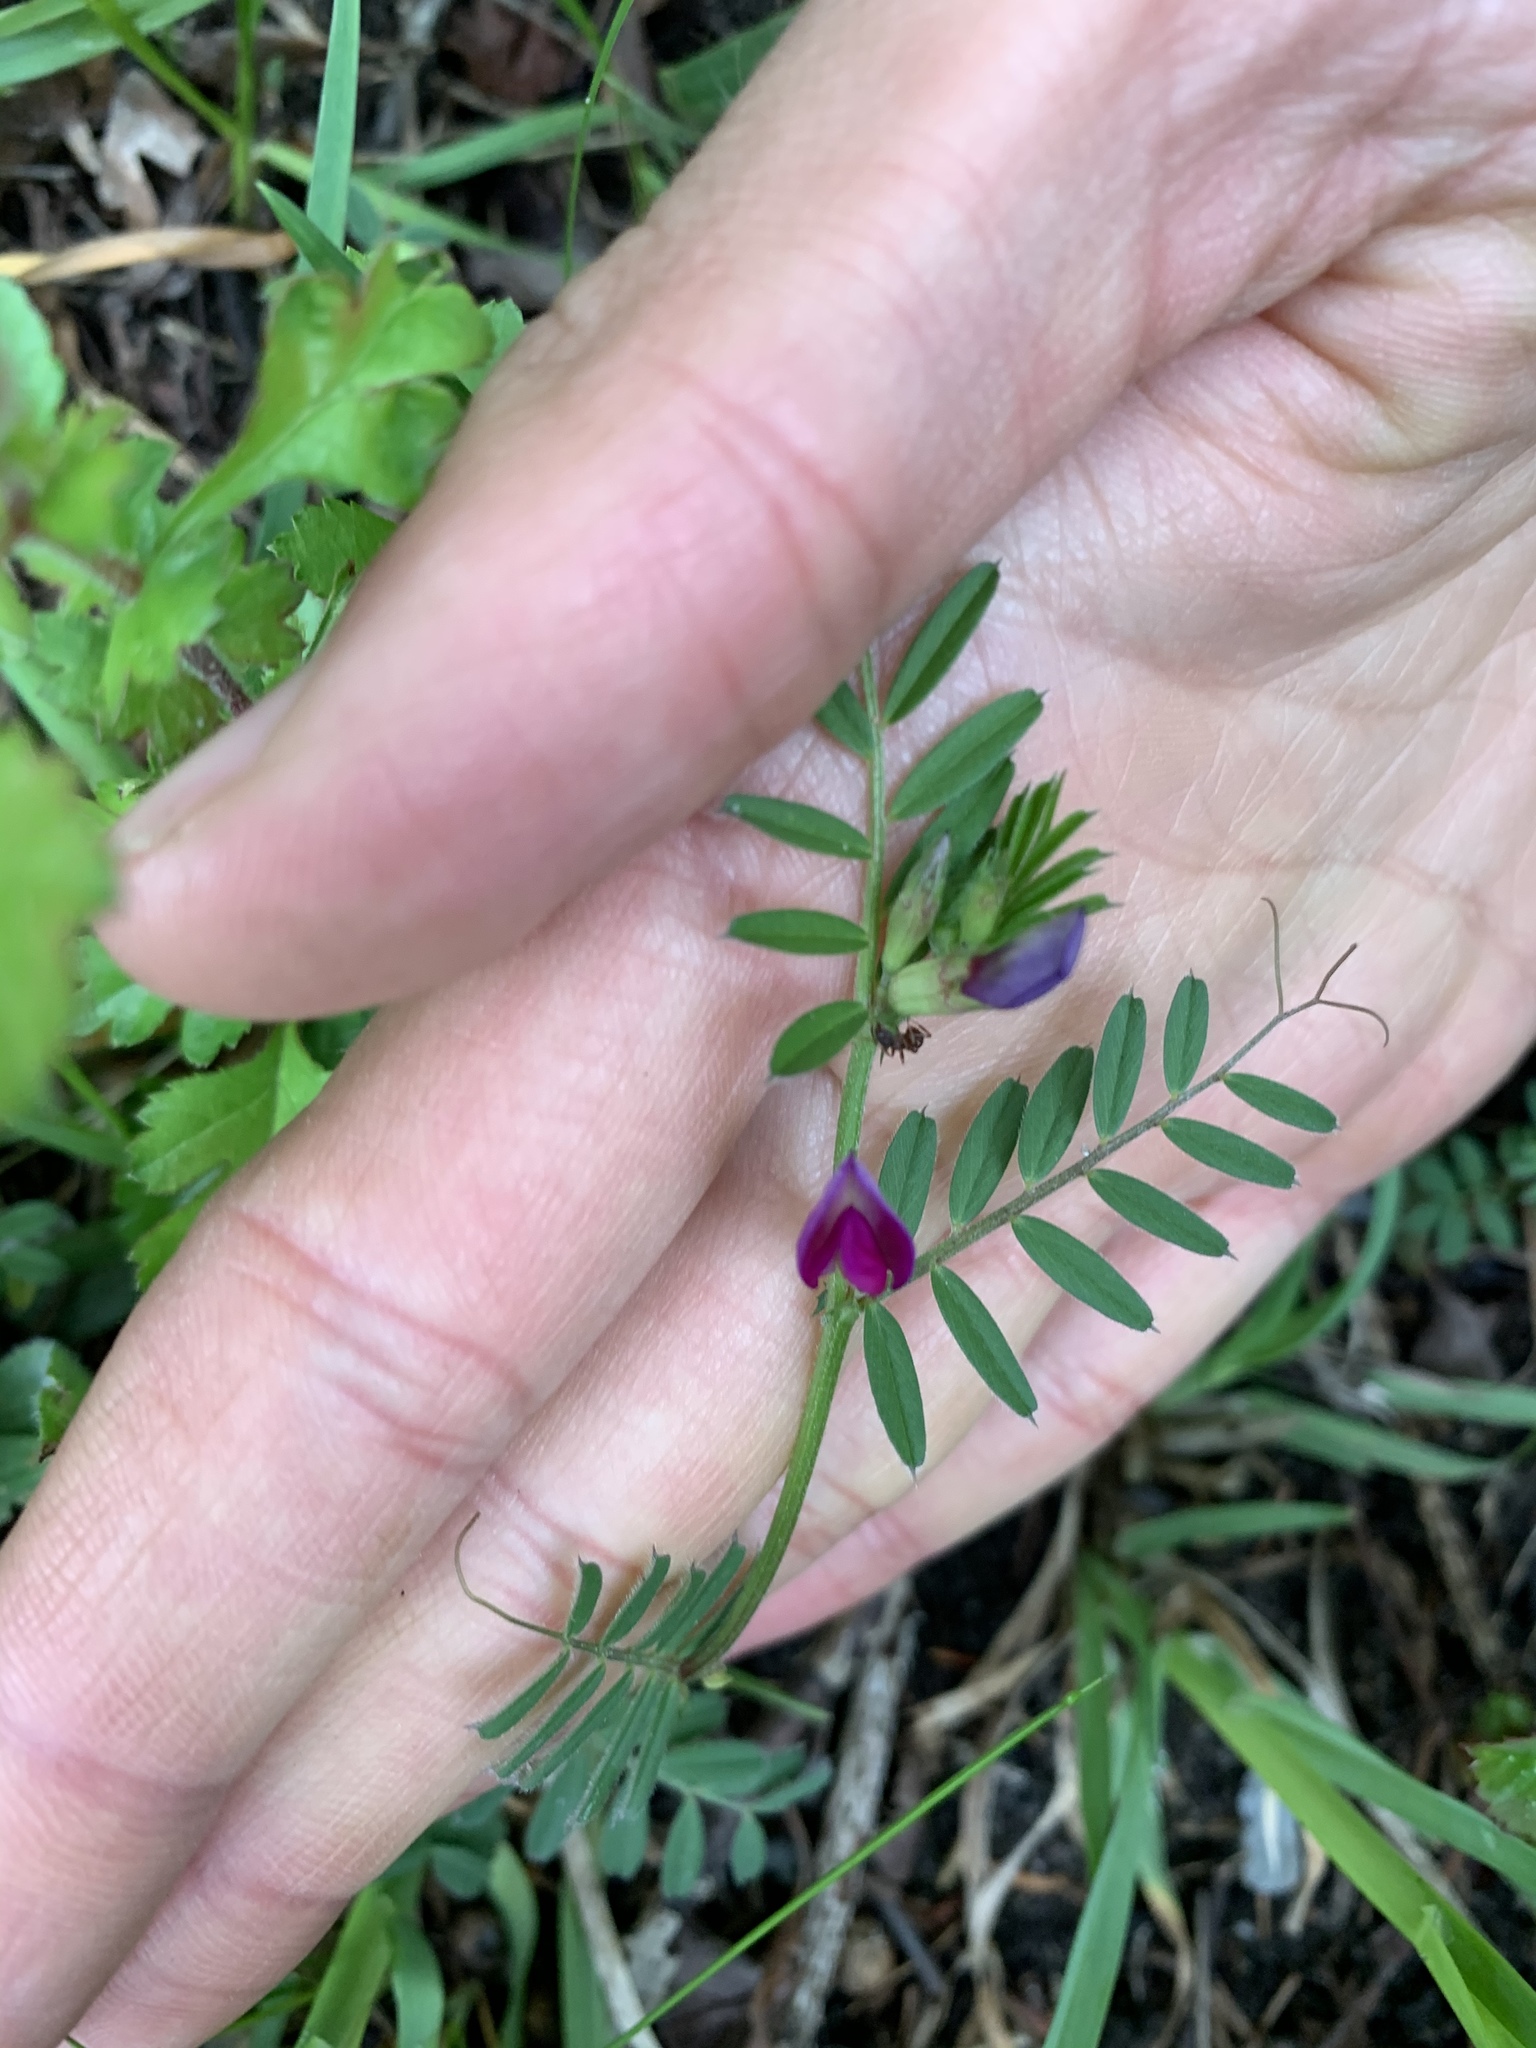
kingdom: Plantae
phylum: Tracheophyta
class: Magnoliopsida
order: Fabales
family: Fabaceae
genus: Vicia
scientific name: Vicia sativa
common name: Garden vetch
